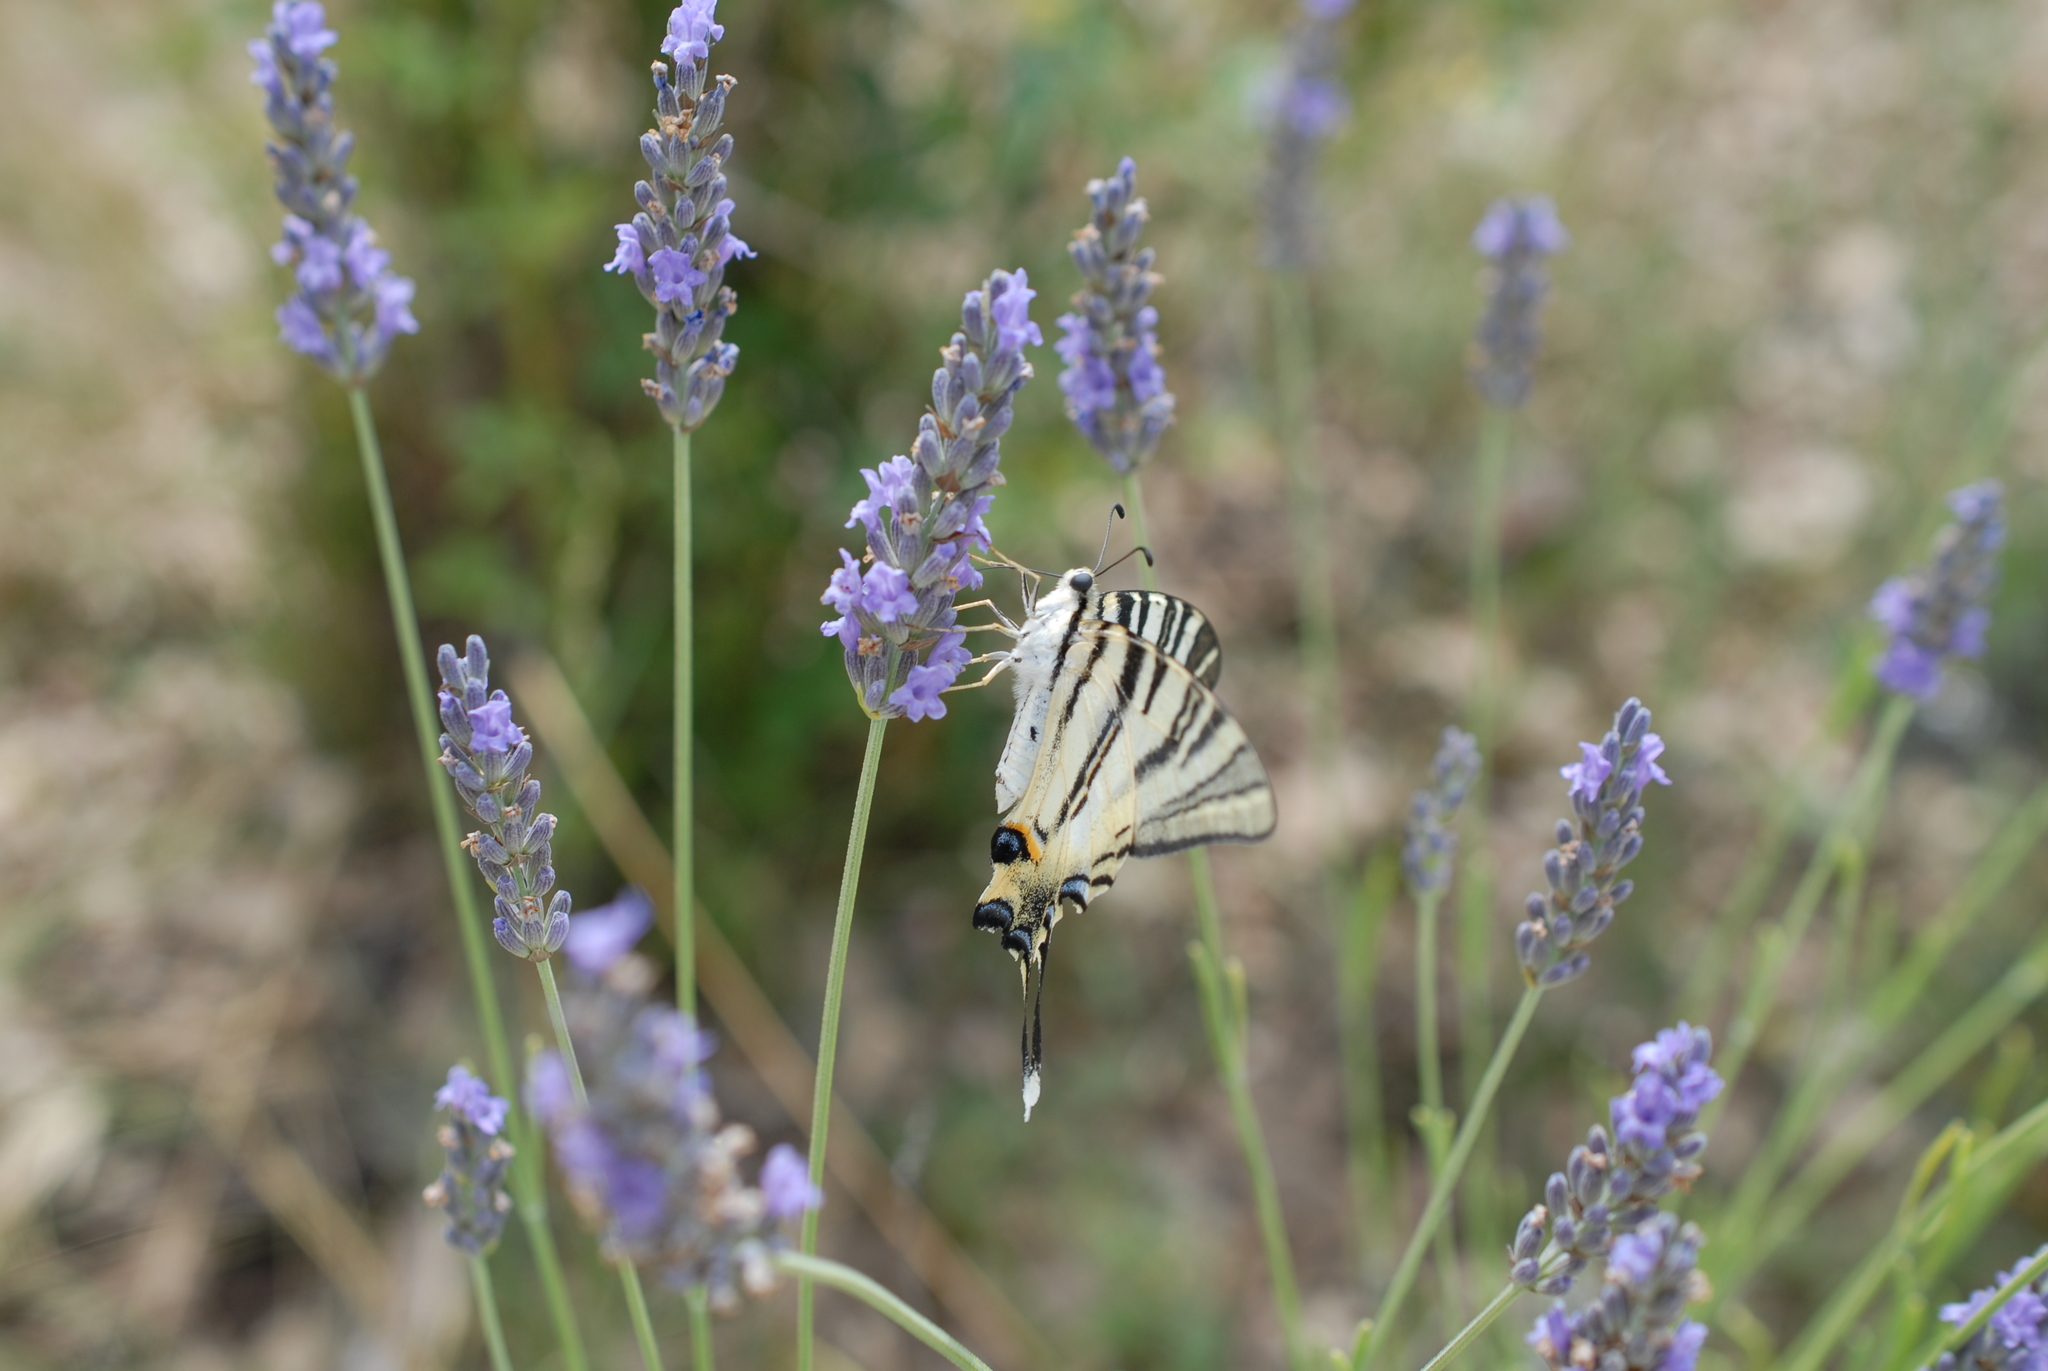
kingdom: Animalia
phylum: Arthropoda
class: Insecta
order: Lepidoptera
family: Papilionidae
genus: Iphiclides
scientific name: Iphiclides podalirius
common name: Scarce swallowtail
